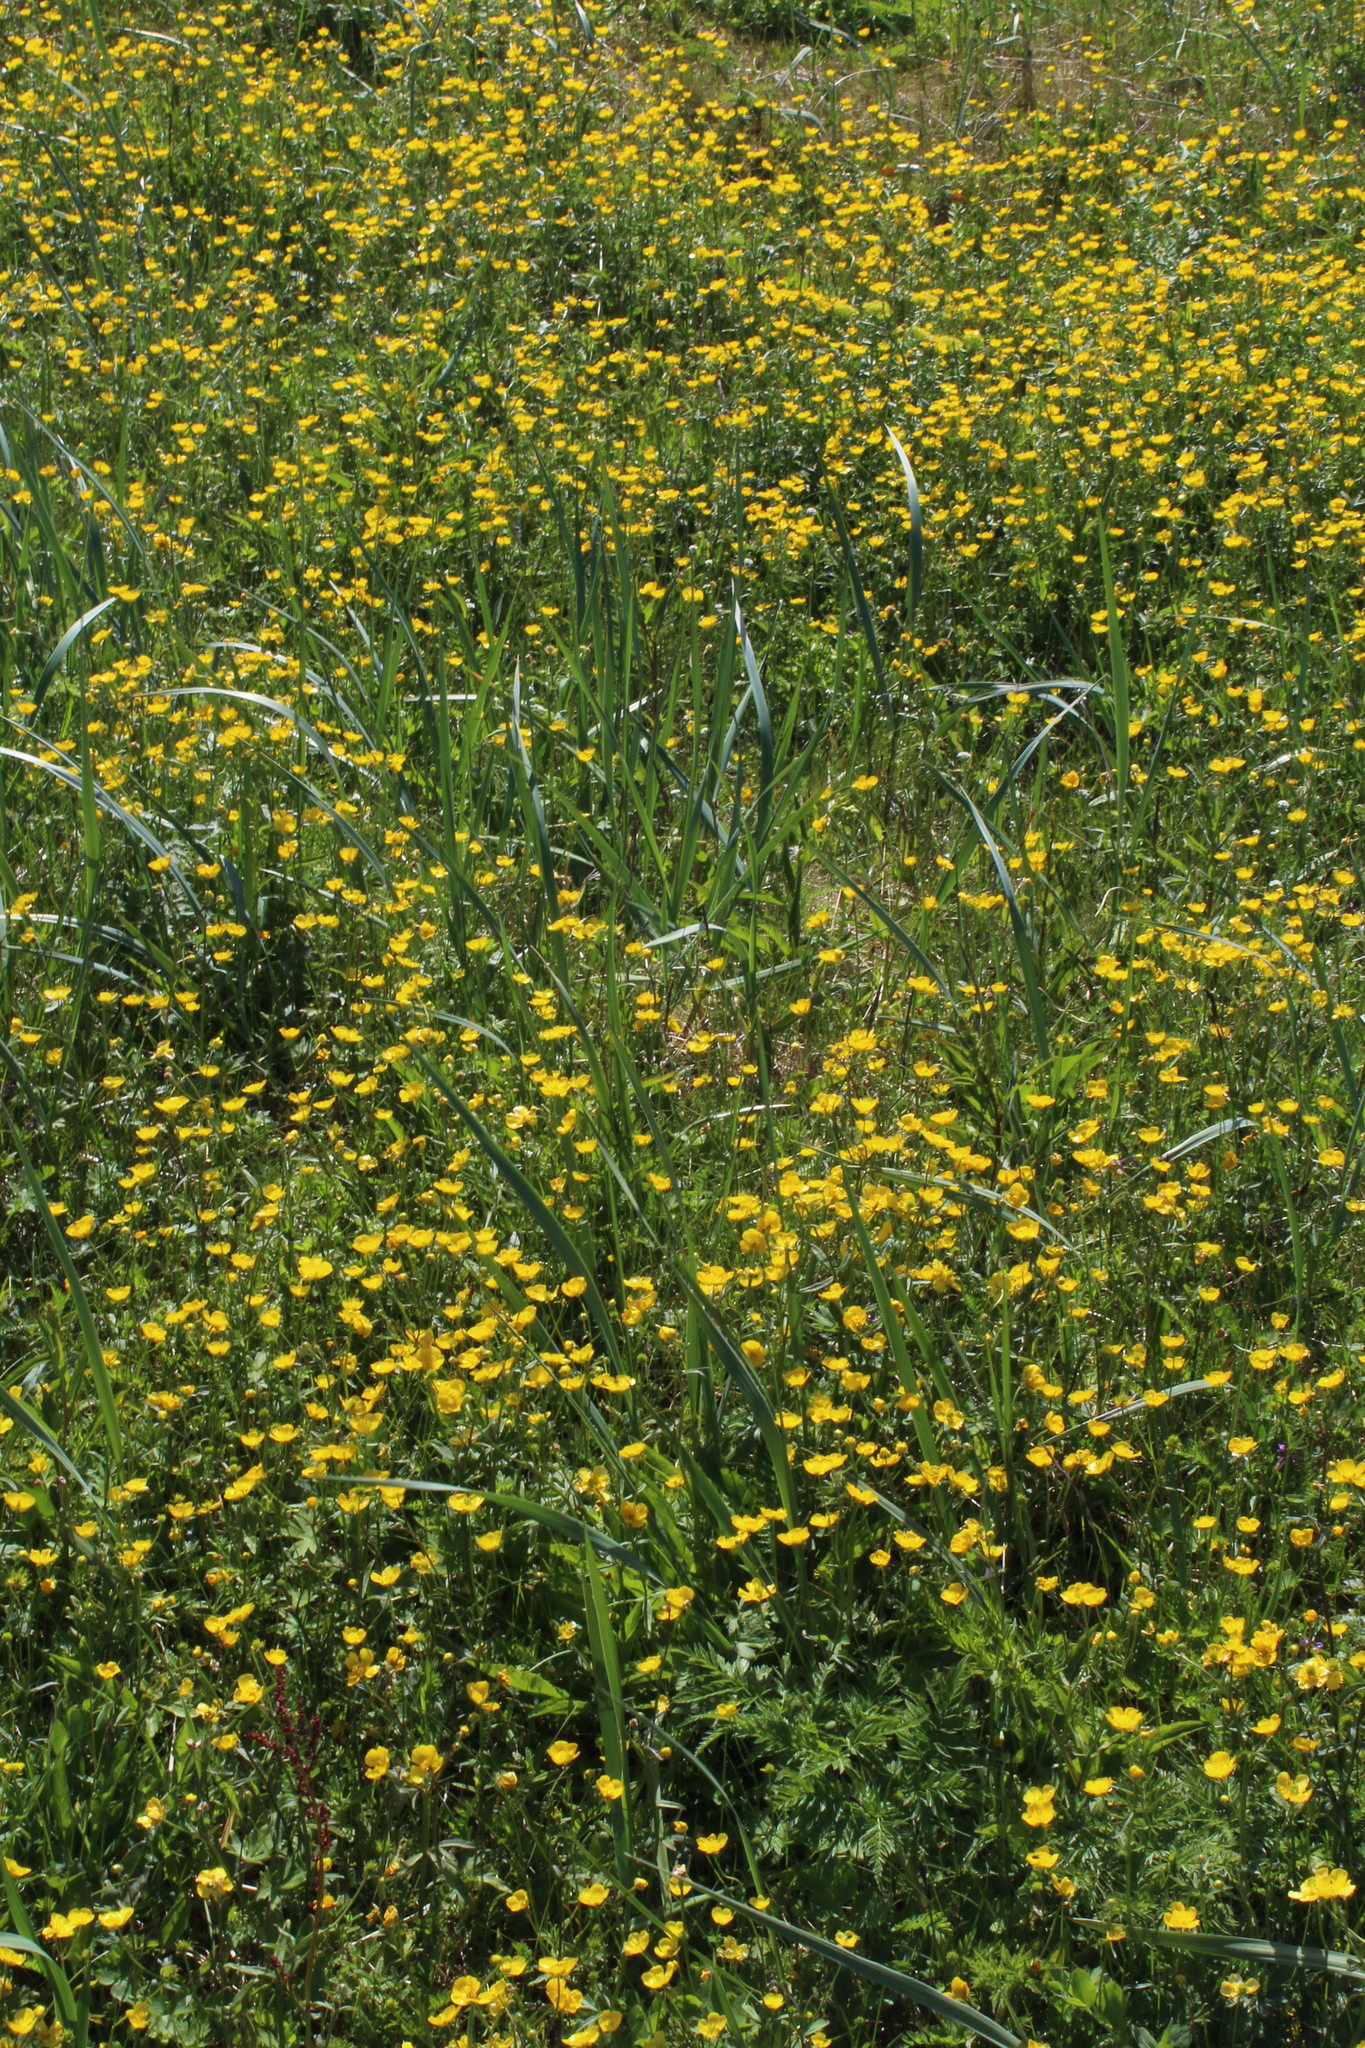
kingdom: Plantae
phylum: Tracheophyta
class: Magnoliopsida
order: Ranunculales
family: Ranunculaceae
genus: Ranunculus
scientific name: Ranunculus propinquus
